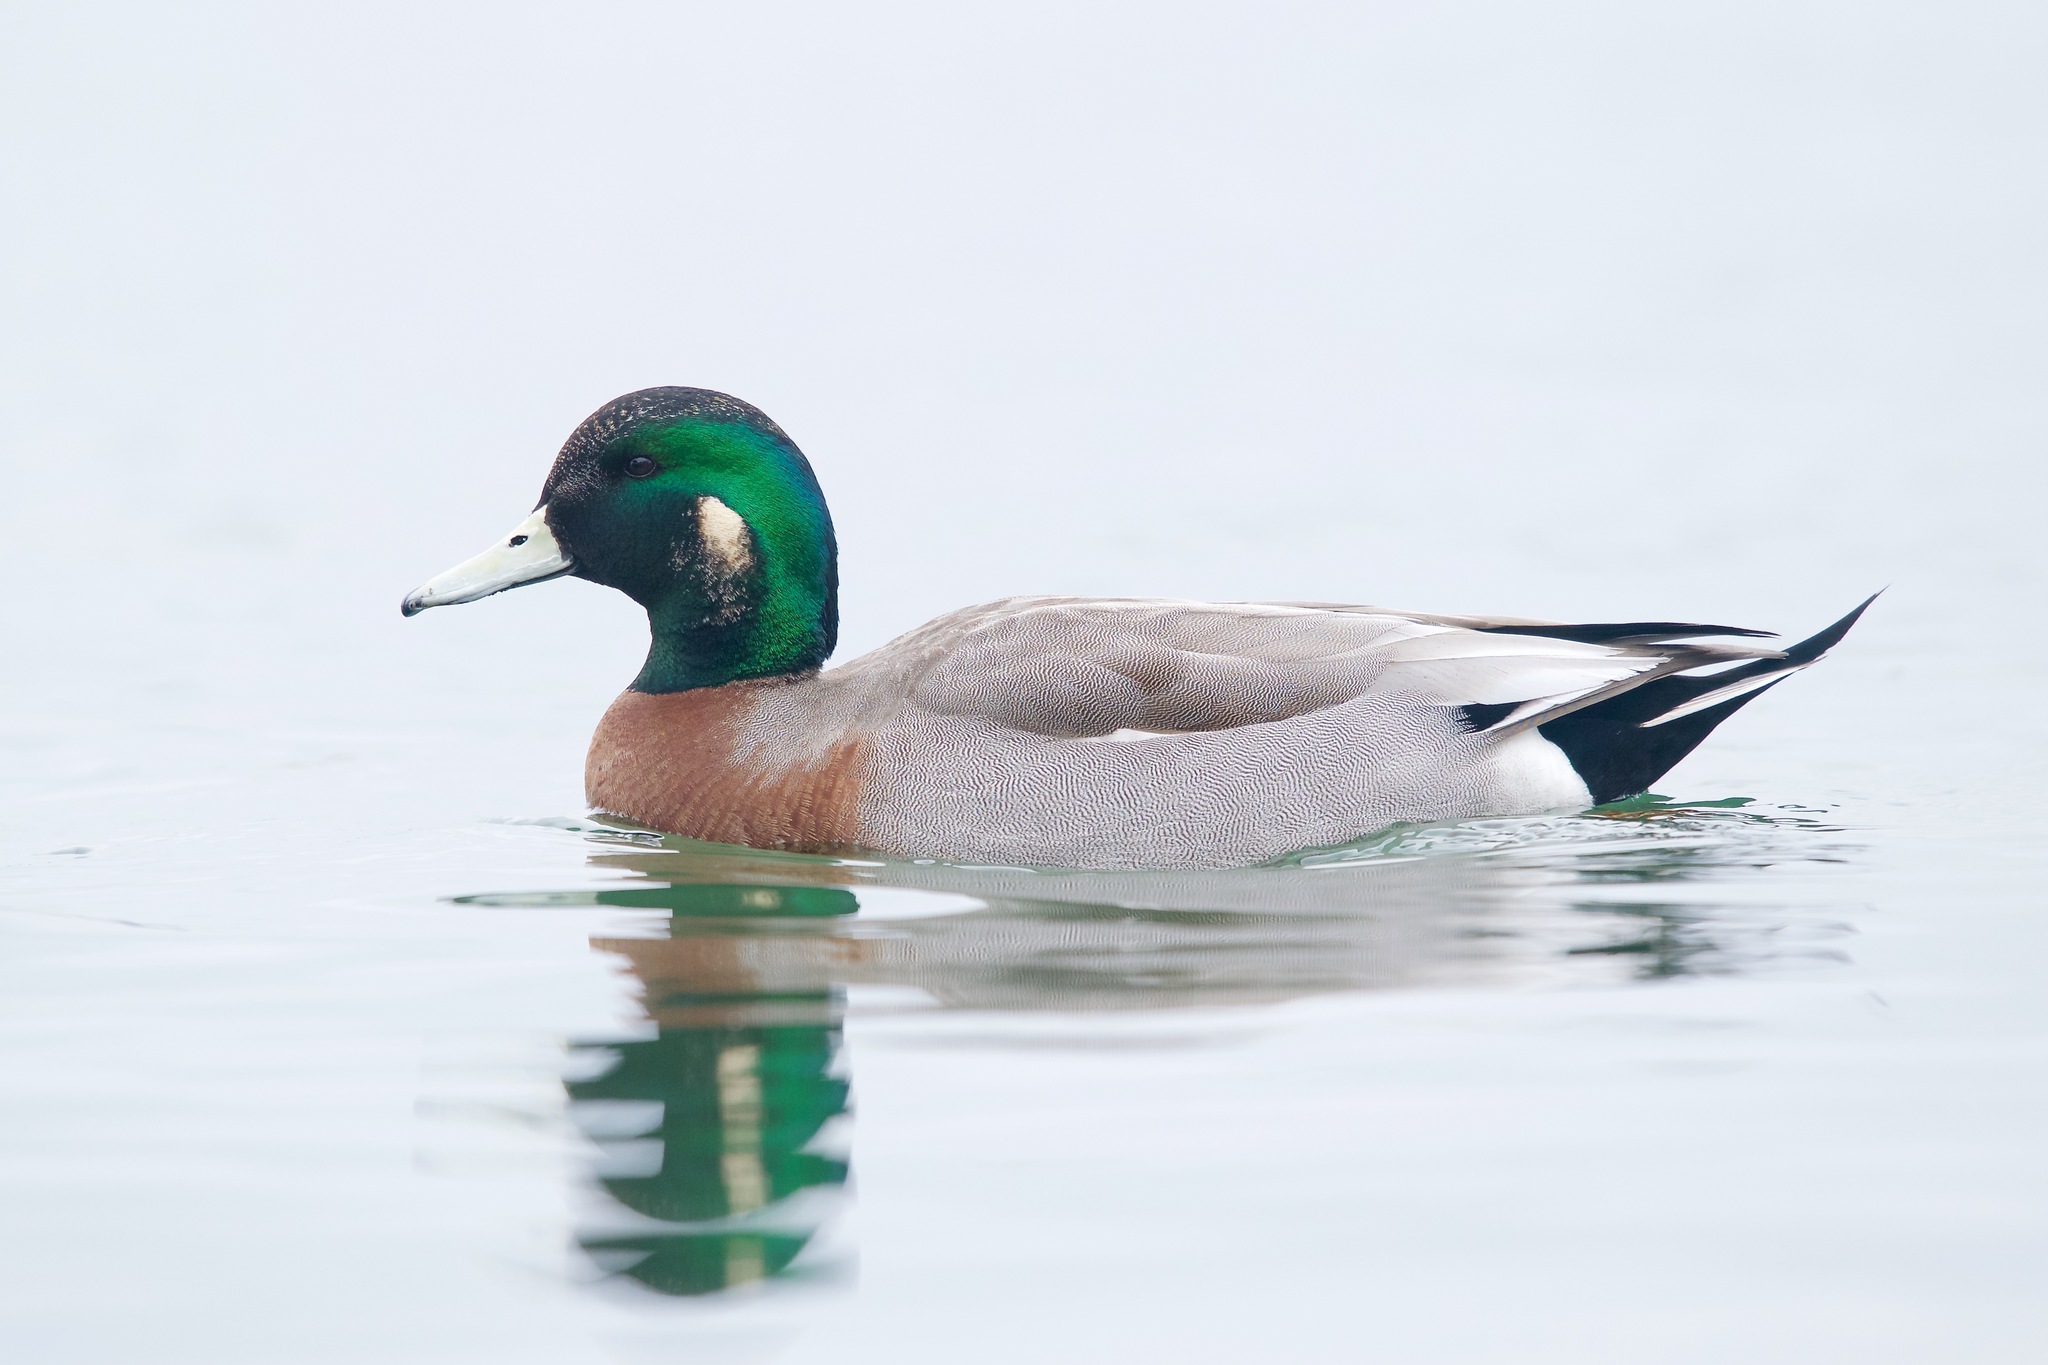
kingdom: Animalia
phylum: Chordata
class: Aves
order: Anseriformes
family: Anatidae
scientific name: Anatidae
